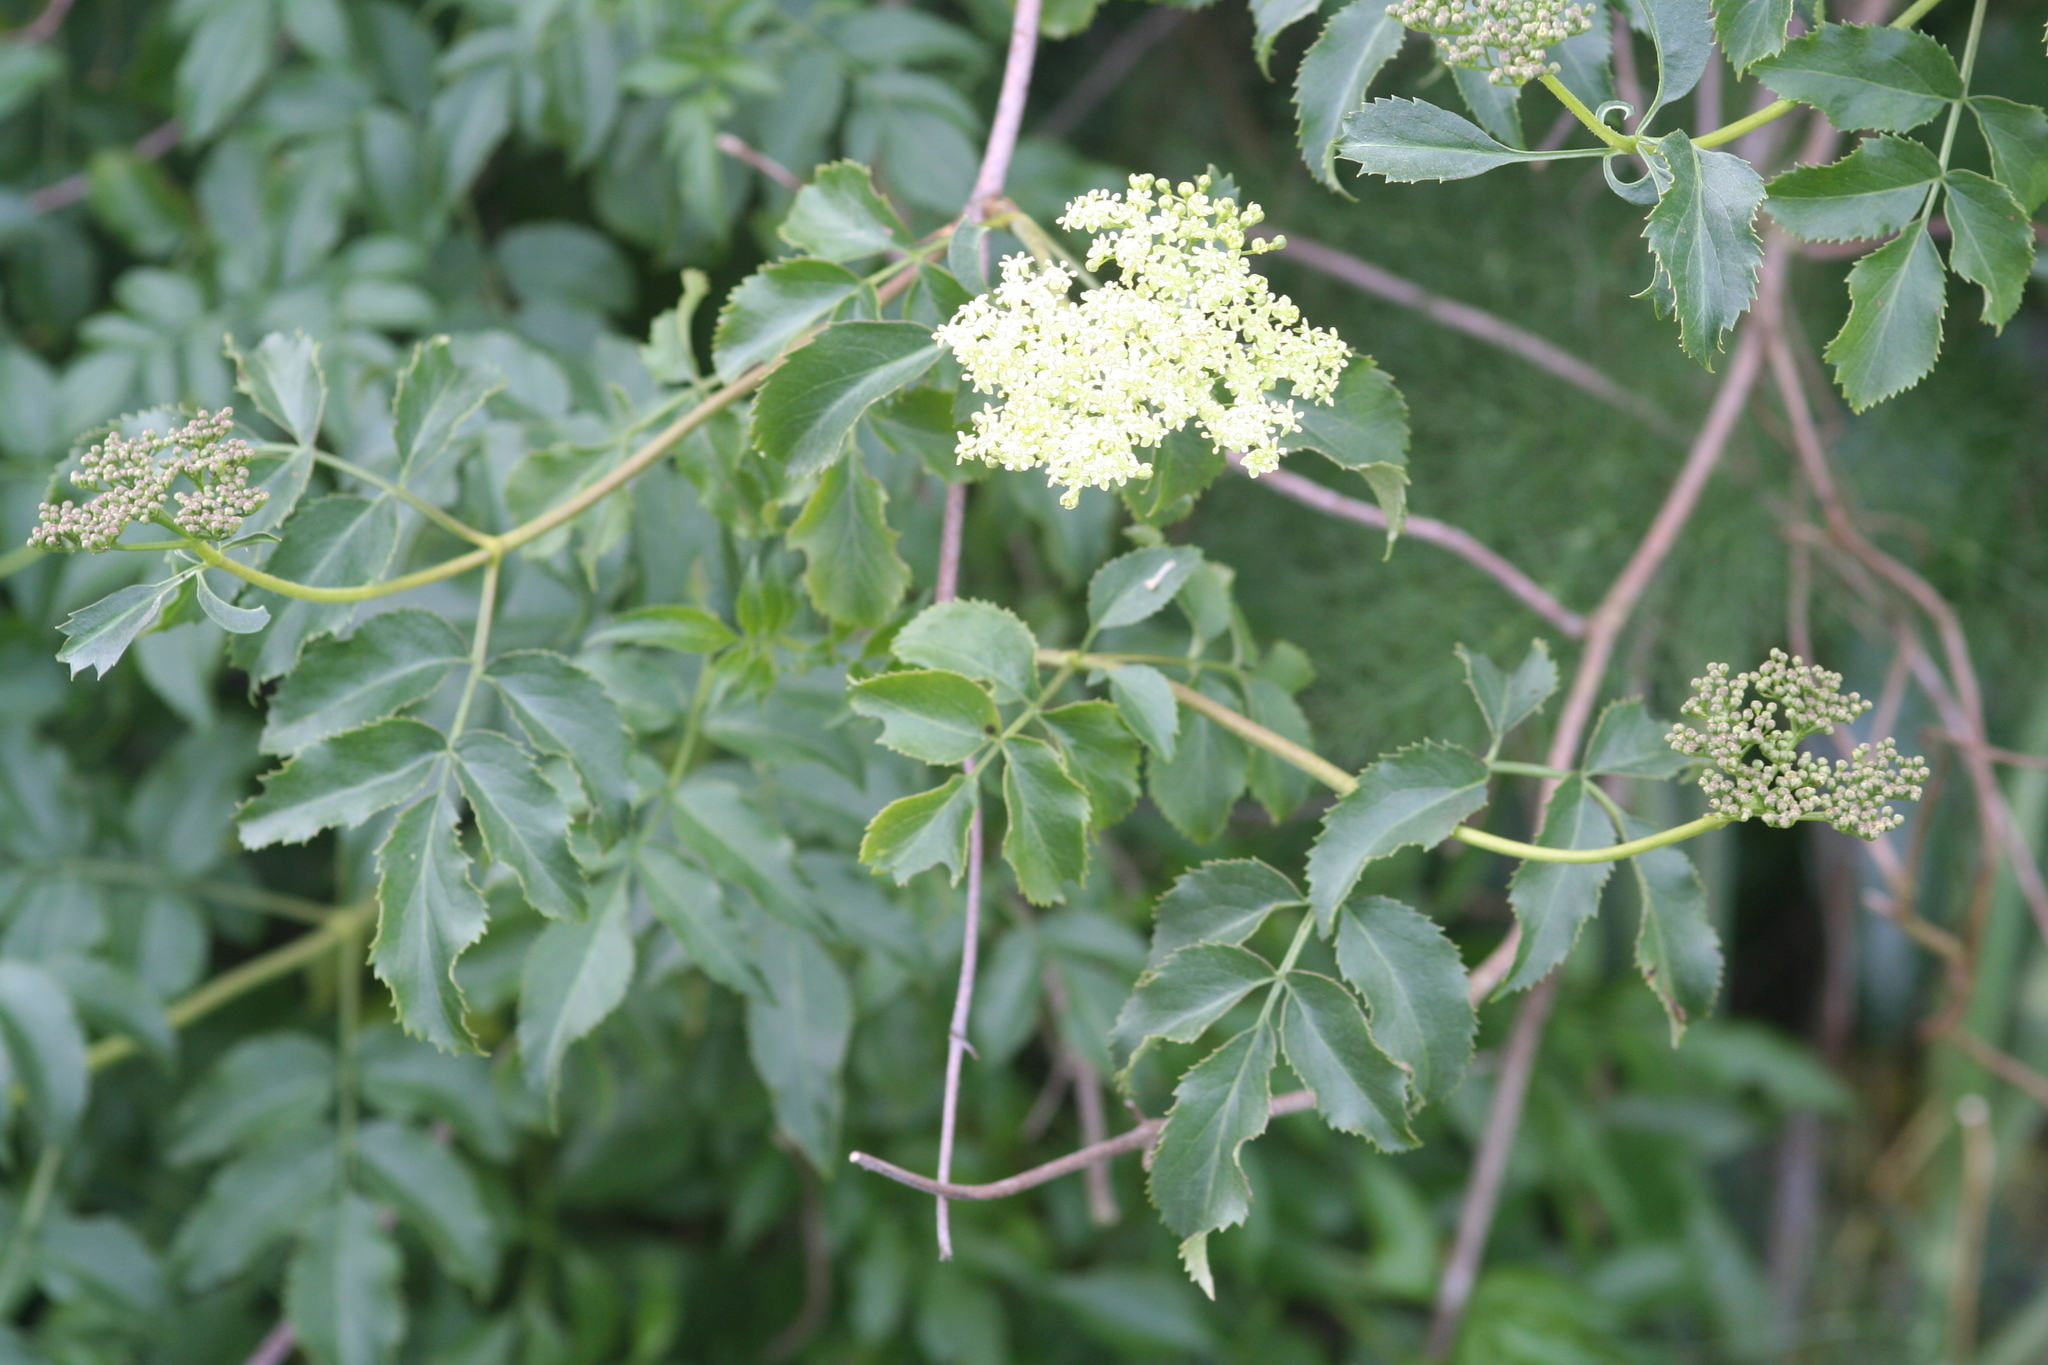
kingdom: Plantae
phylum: Tracheophyta
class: Magnoliopsida
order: Dipsacales
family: Viburnaceae
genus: Sambucus
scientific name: Sambucus cerulea
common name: Blue elder
